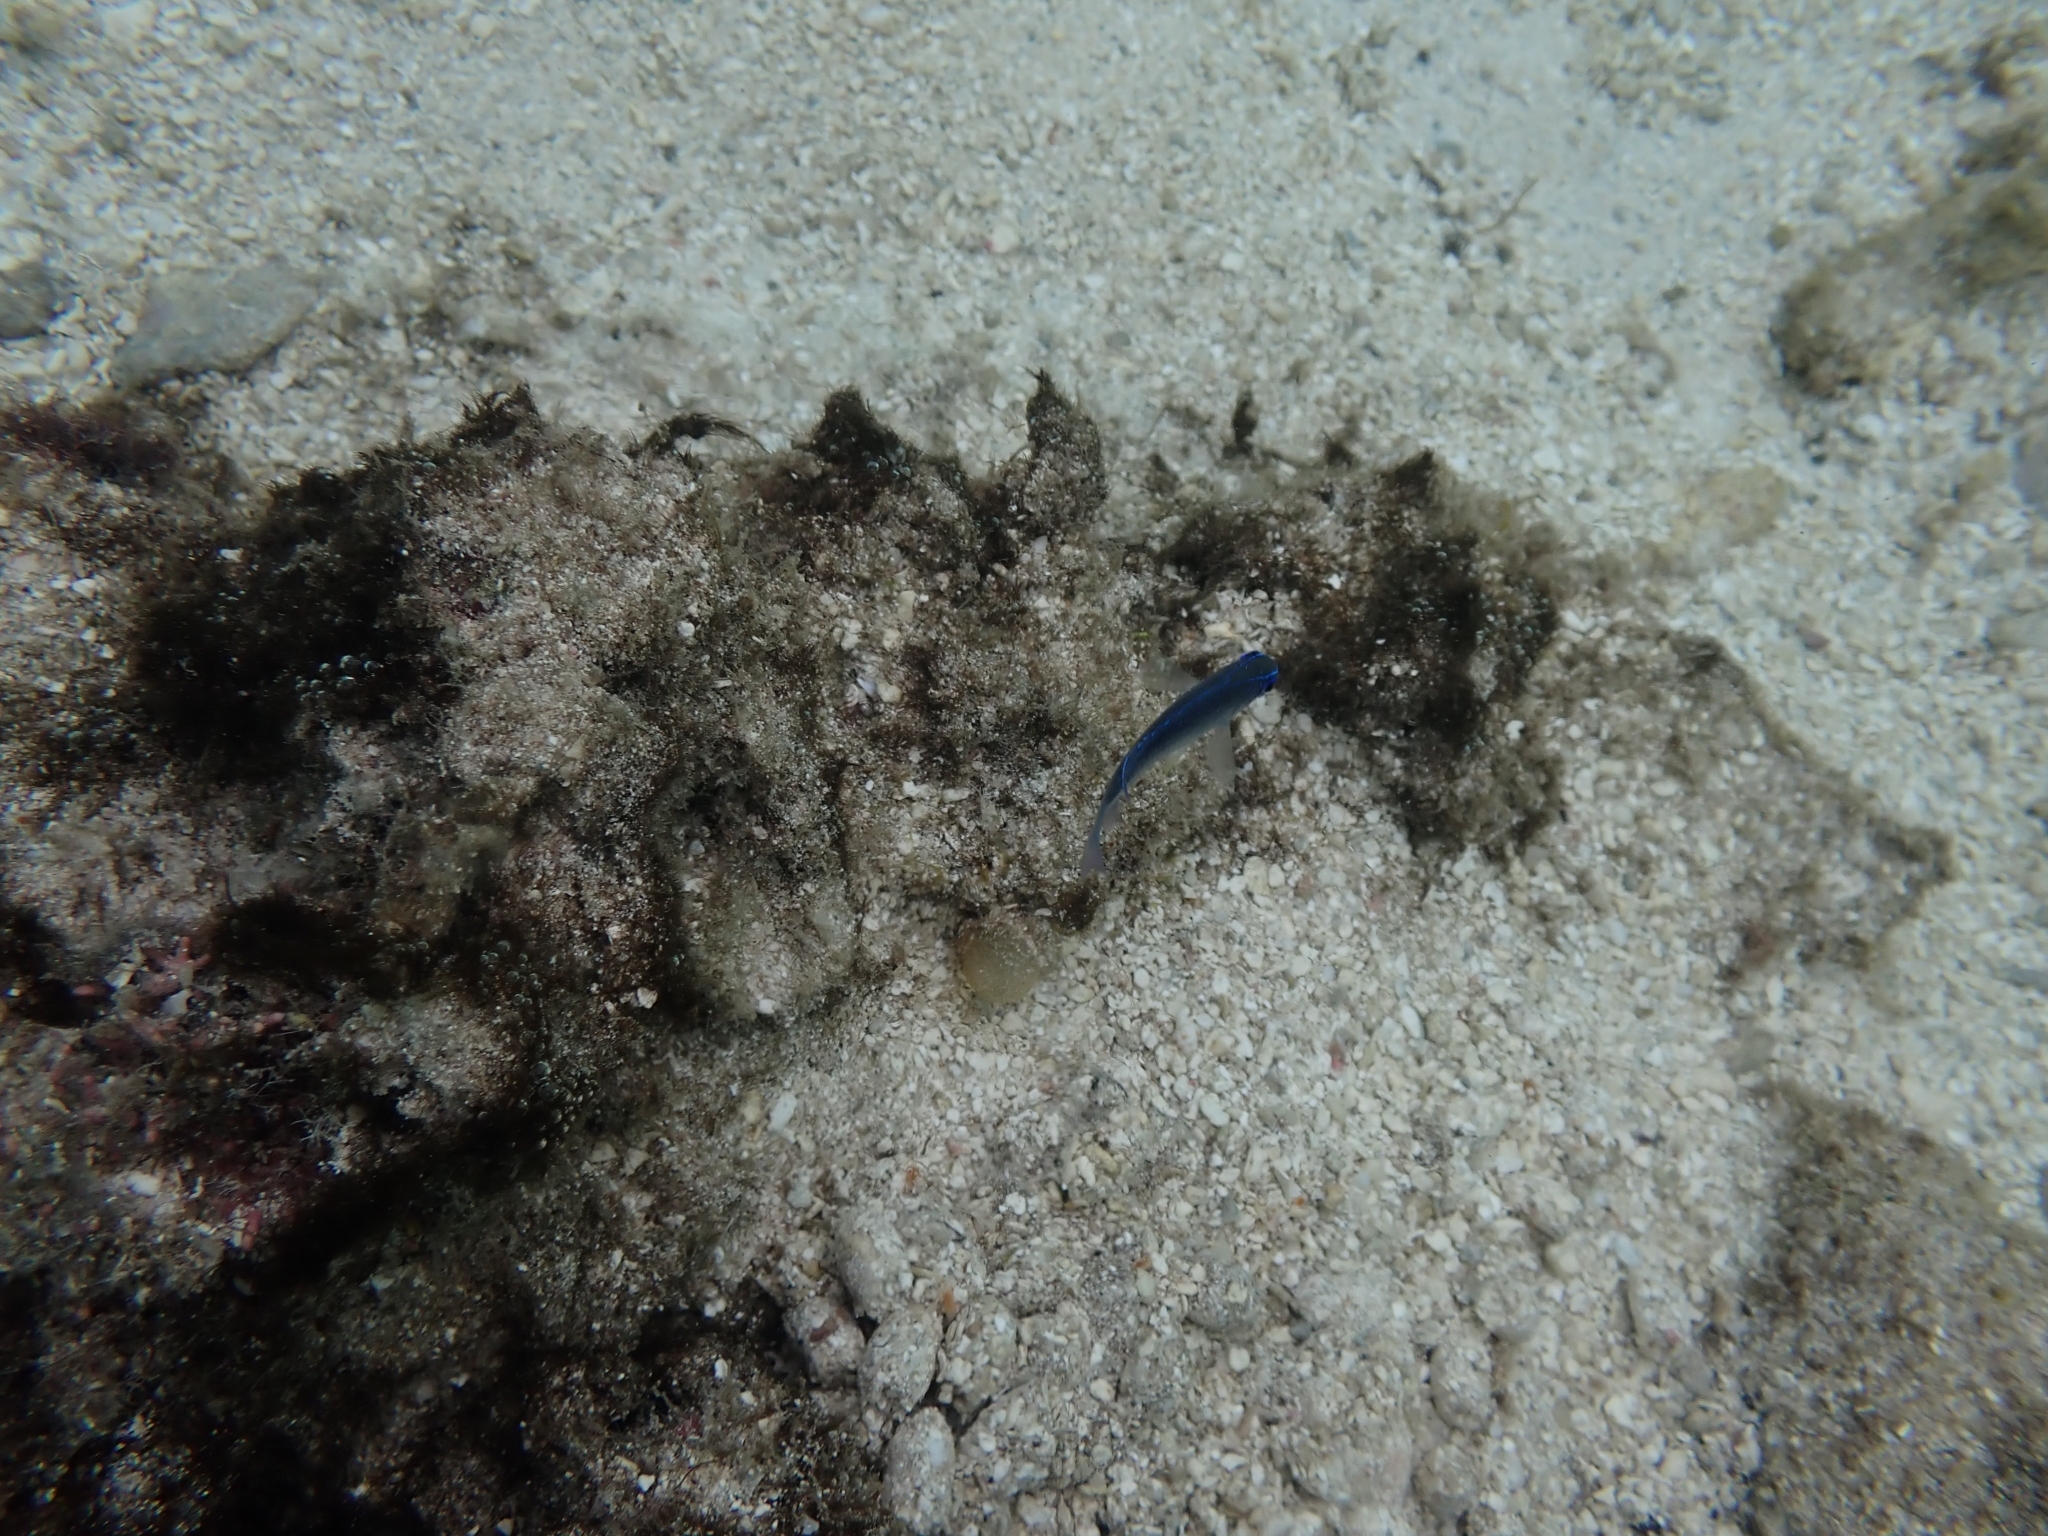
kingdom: Animalia
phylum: Chordata
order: Perciformes
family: Pomacentridae
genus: Chrysiptera
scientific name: Chrysiptera glauca
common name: Grey demoiselle
